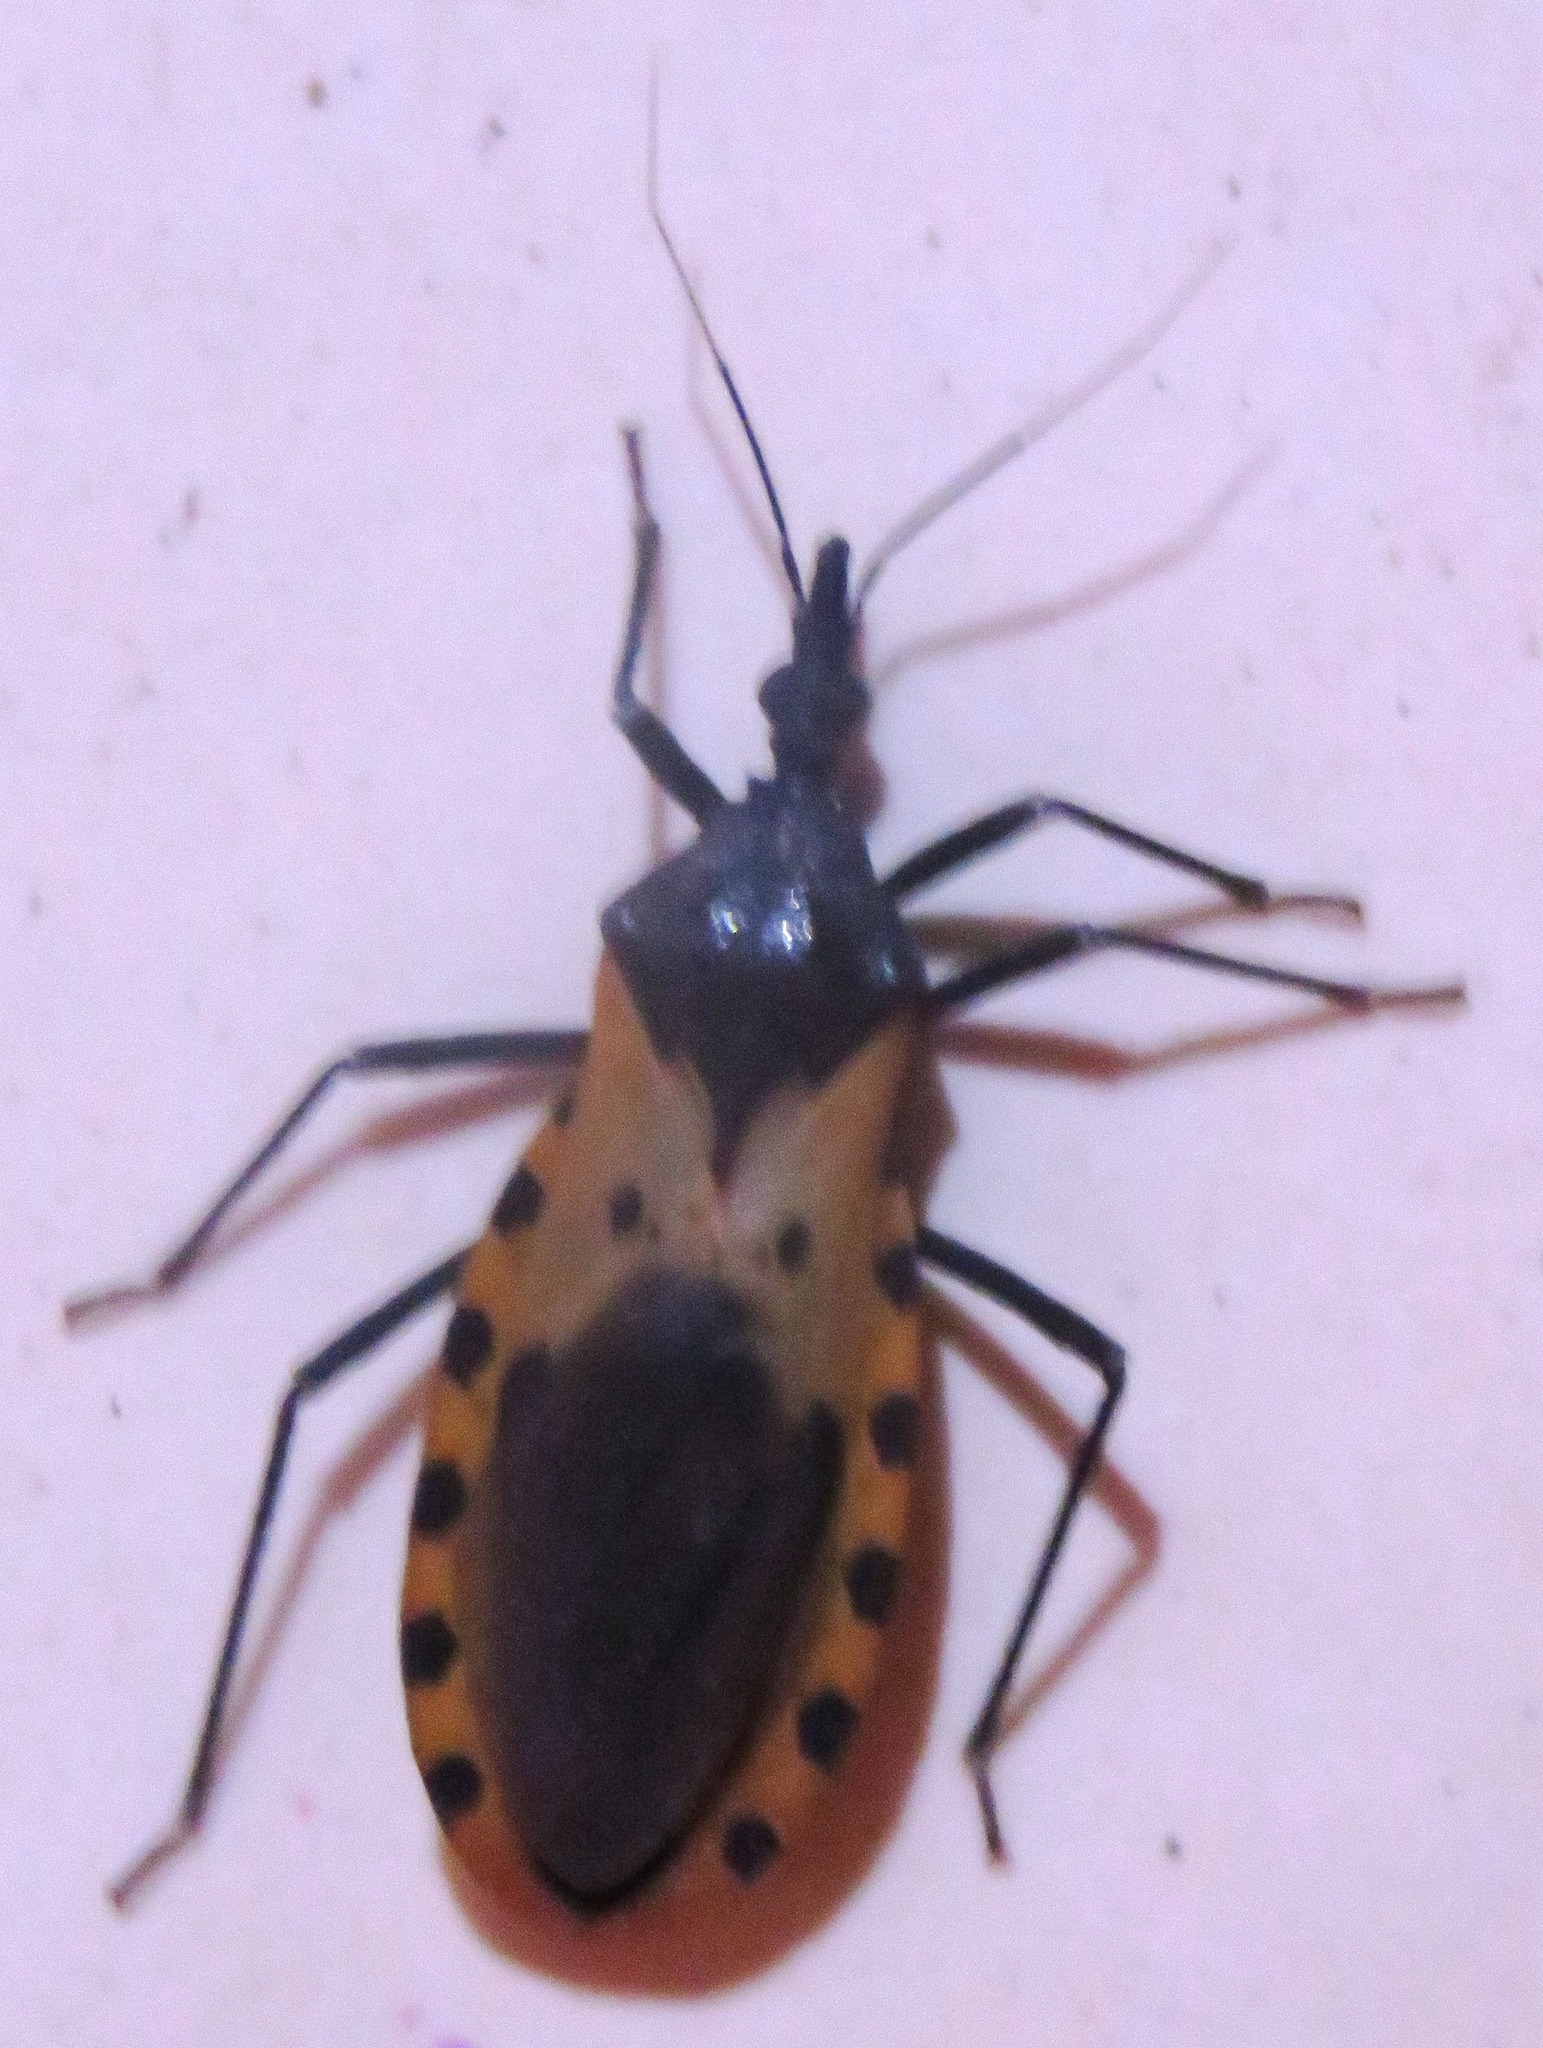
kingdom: Animalia
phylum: Arthropoda
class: Insecta
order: Hemiptera
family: Reduviidae
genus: Meccus
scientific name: Meccus dimidiatus
